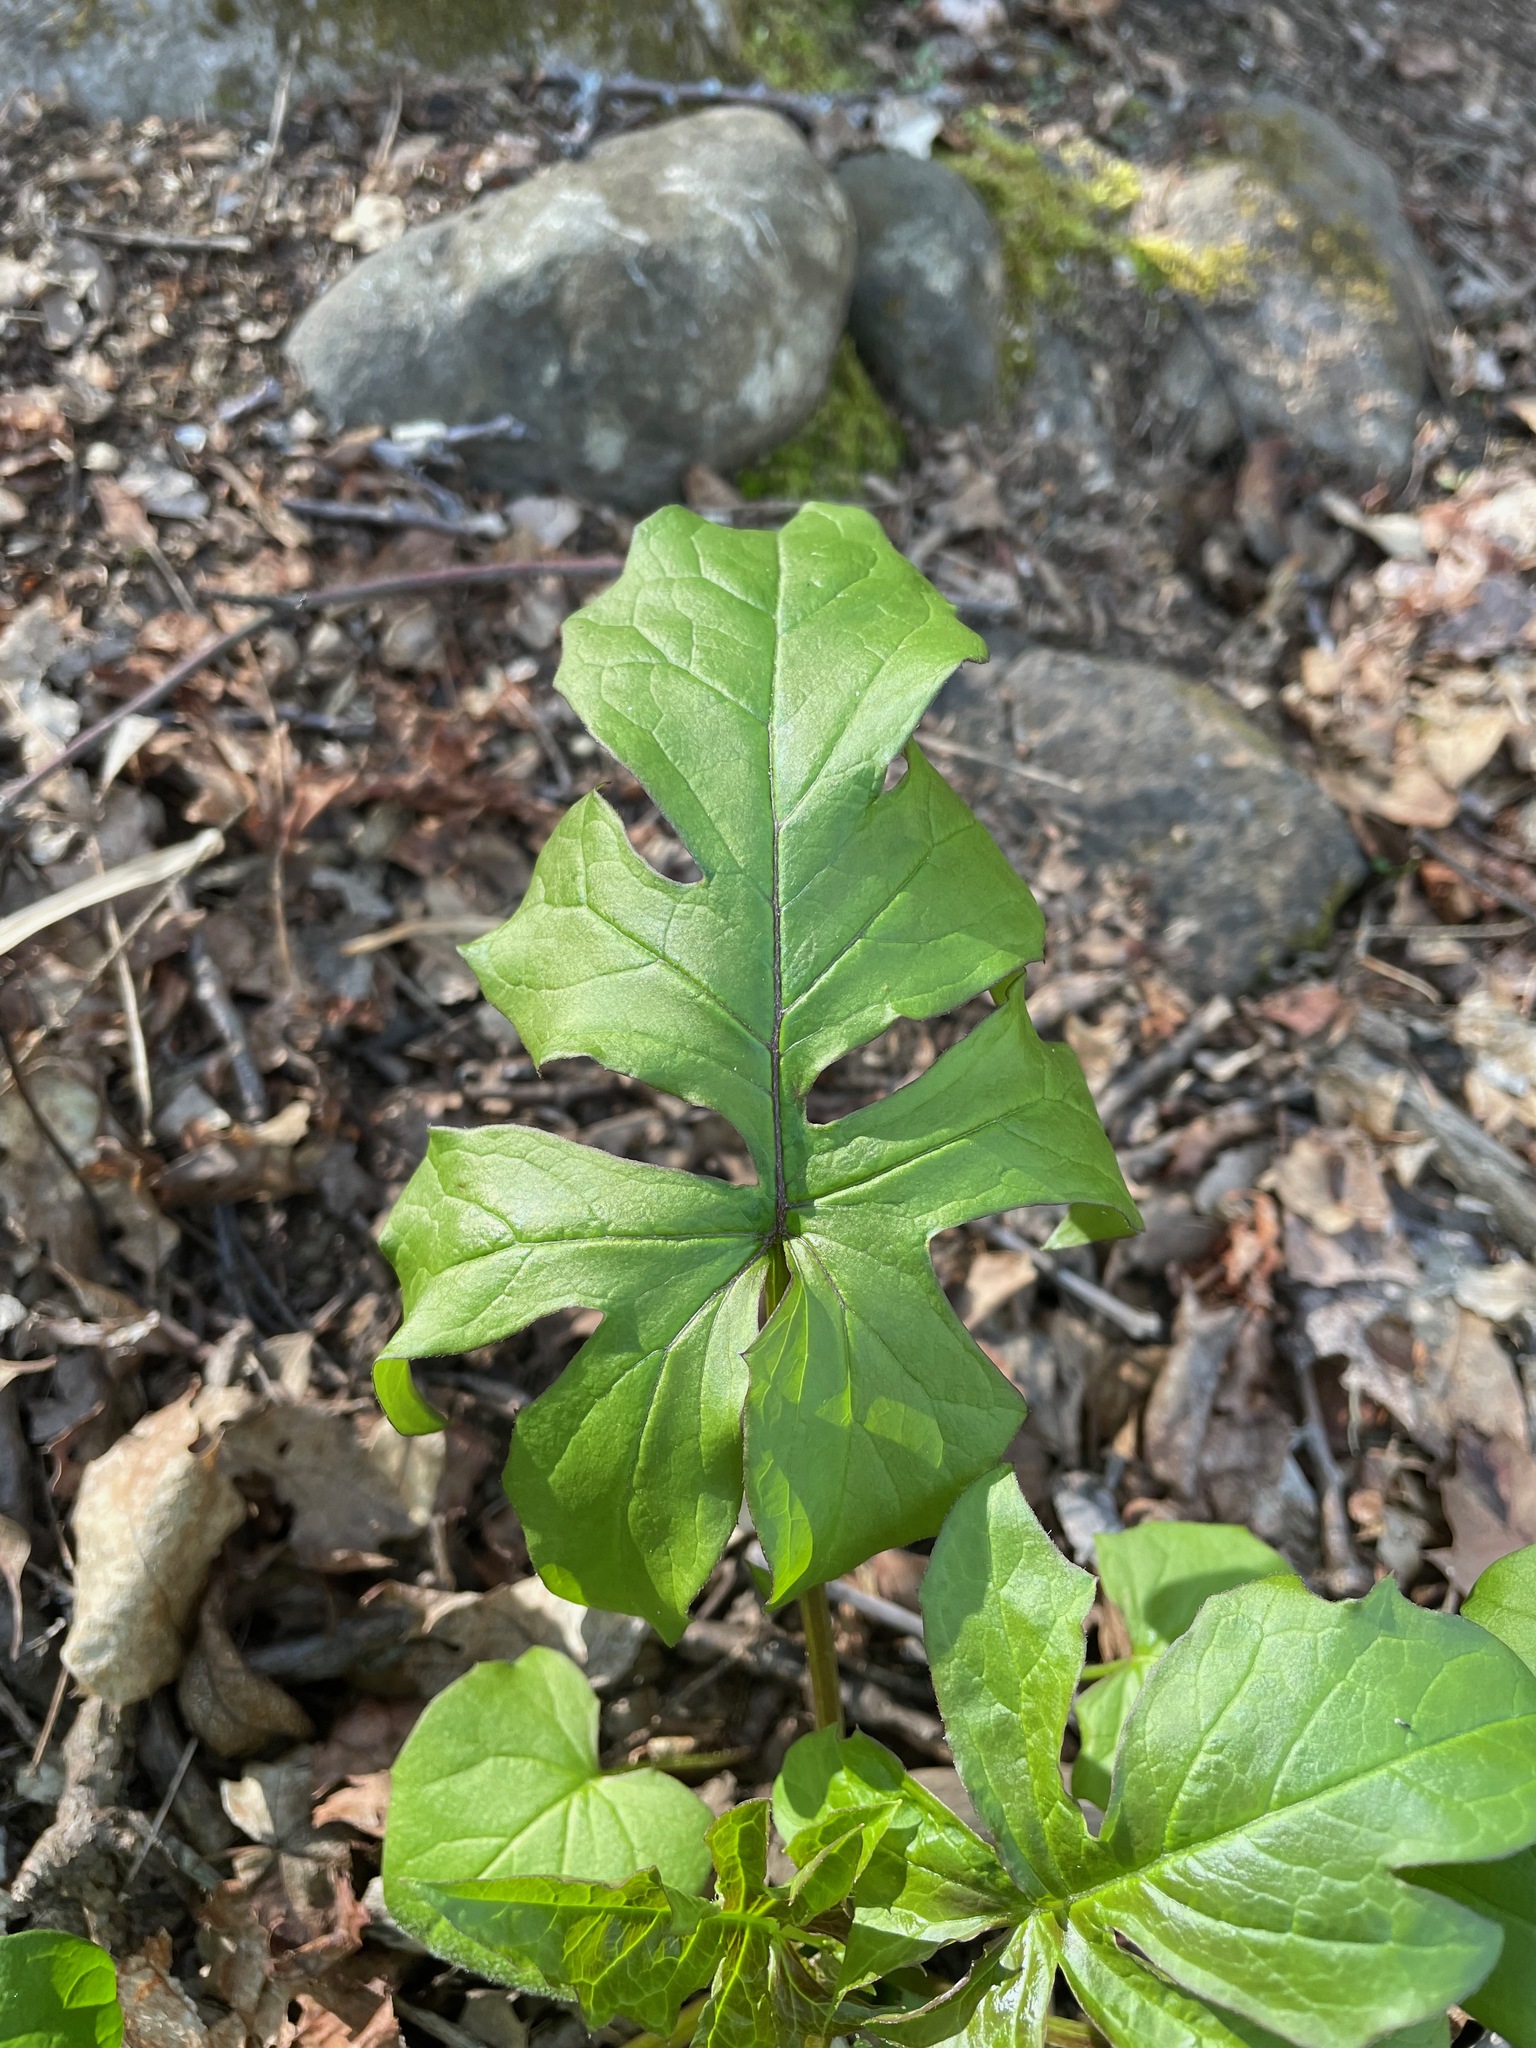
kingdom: Plantae
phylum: Tracheophyta
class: Magnoliopsida
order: Asterales
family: Asteraceae
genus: Nabalus
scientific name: Nabalus
